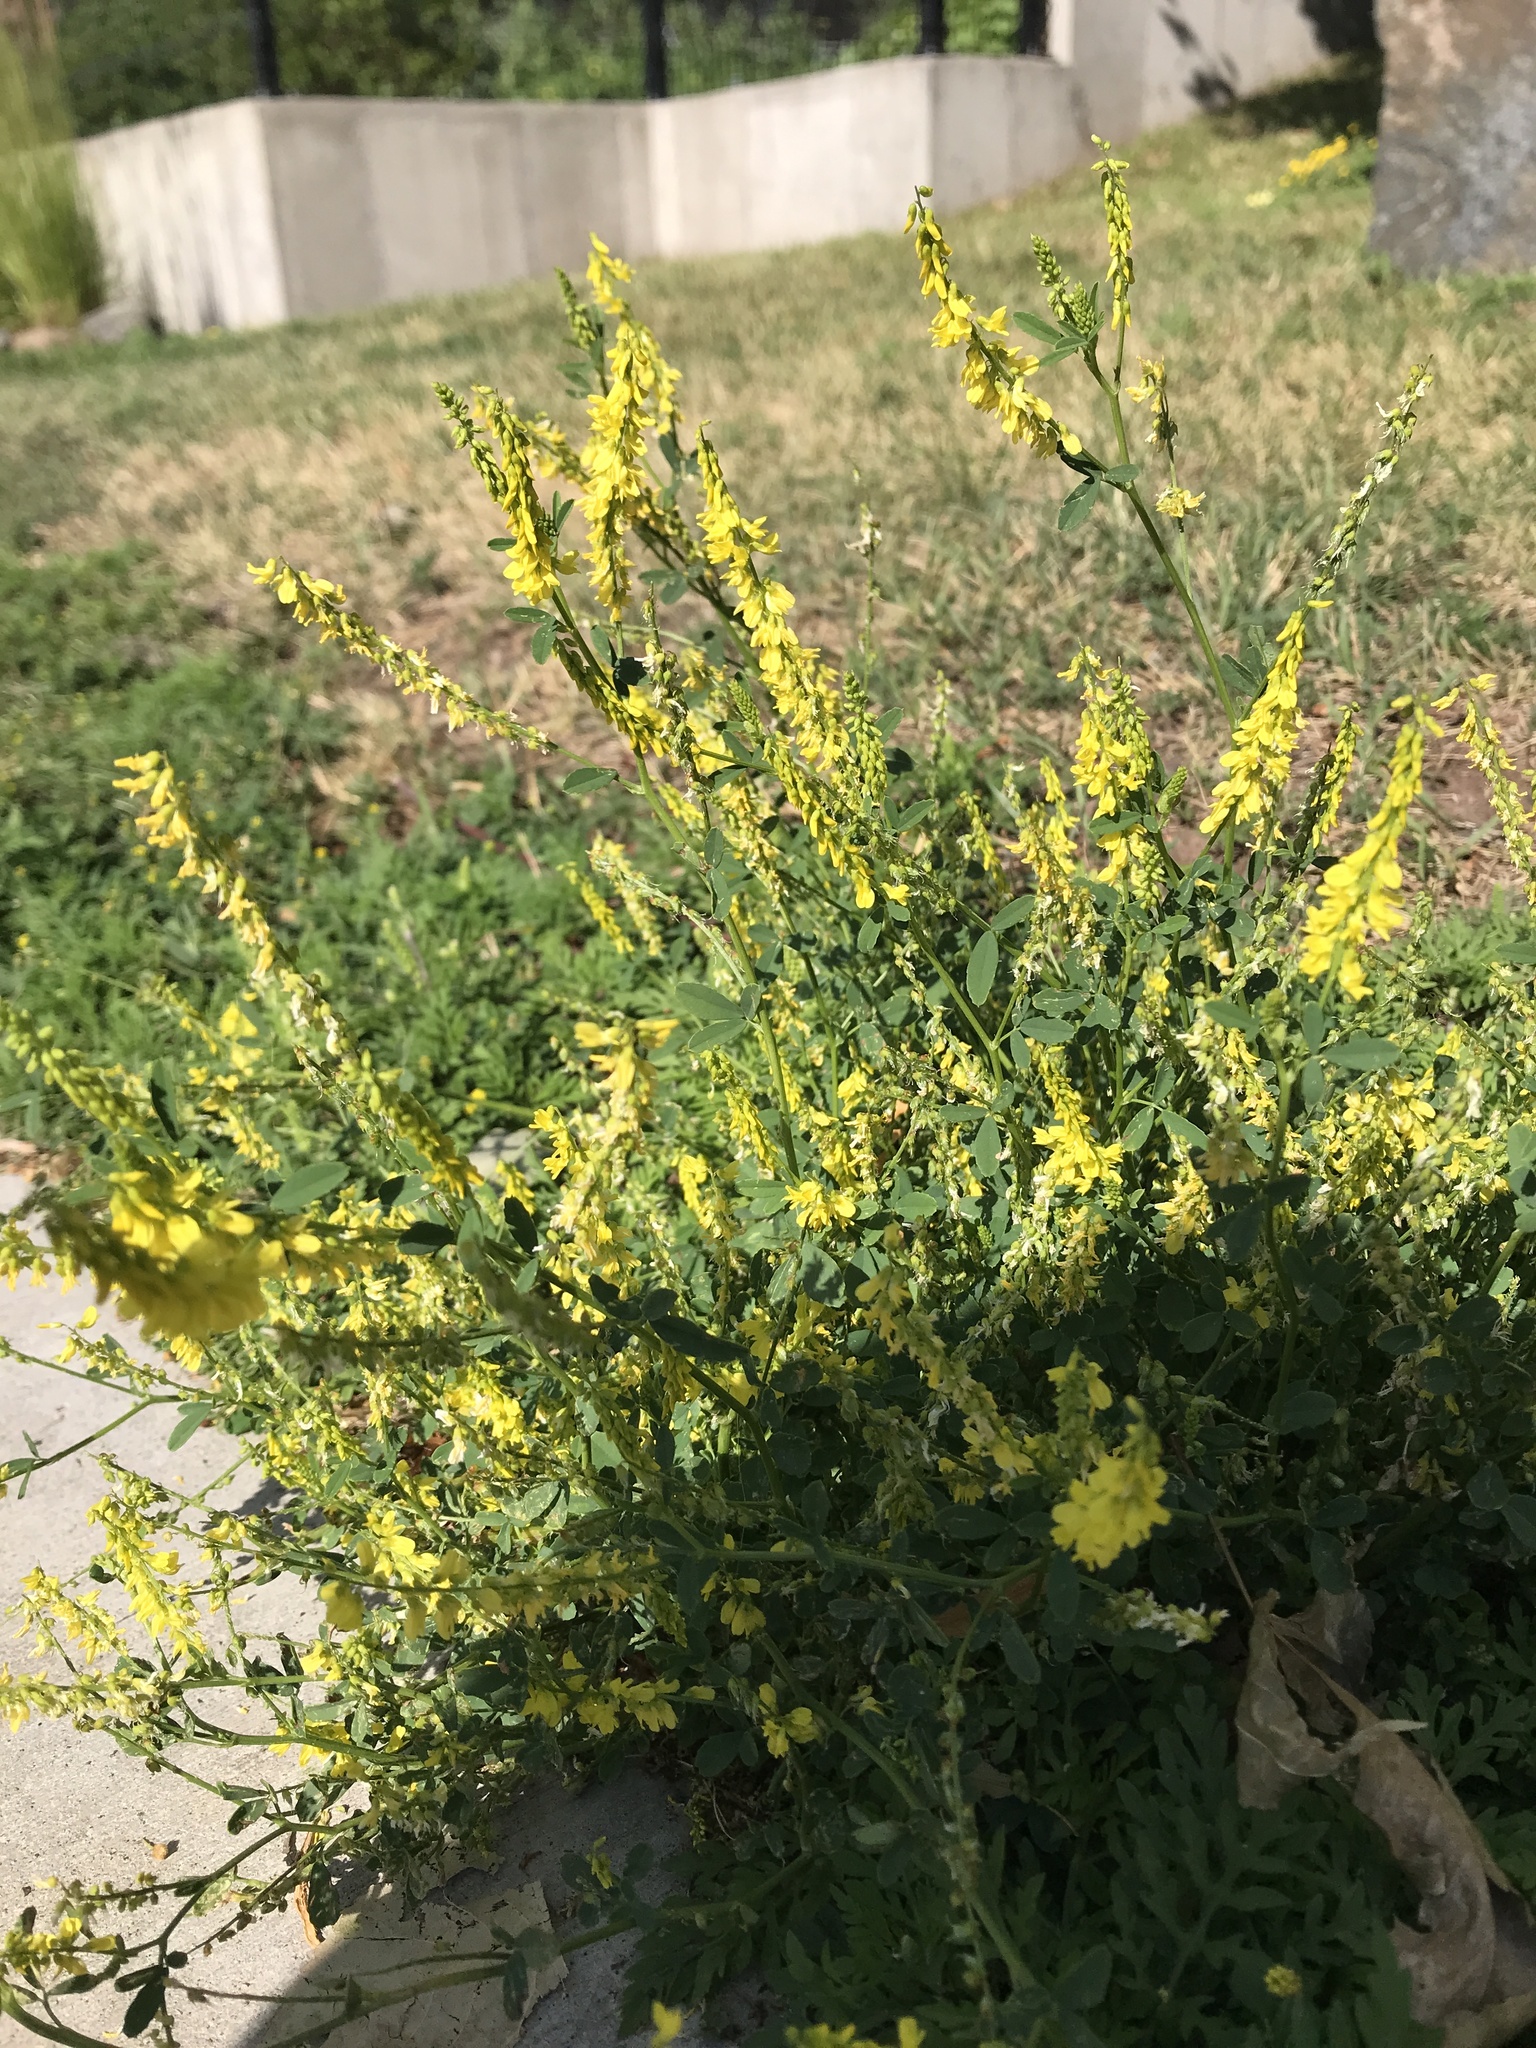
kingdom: Plantae
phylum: Tracheophyta
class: Magnoliopsida
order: Fabales
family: Fabaceae
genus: Melilotus
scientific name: Melilotus officinalis
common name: Sweetclover
